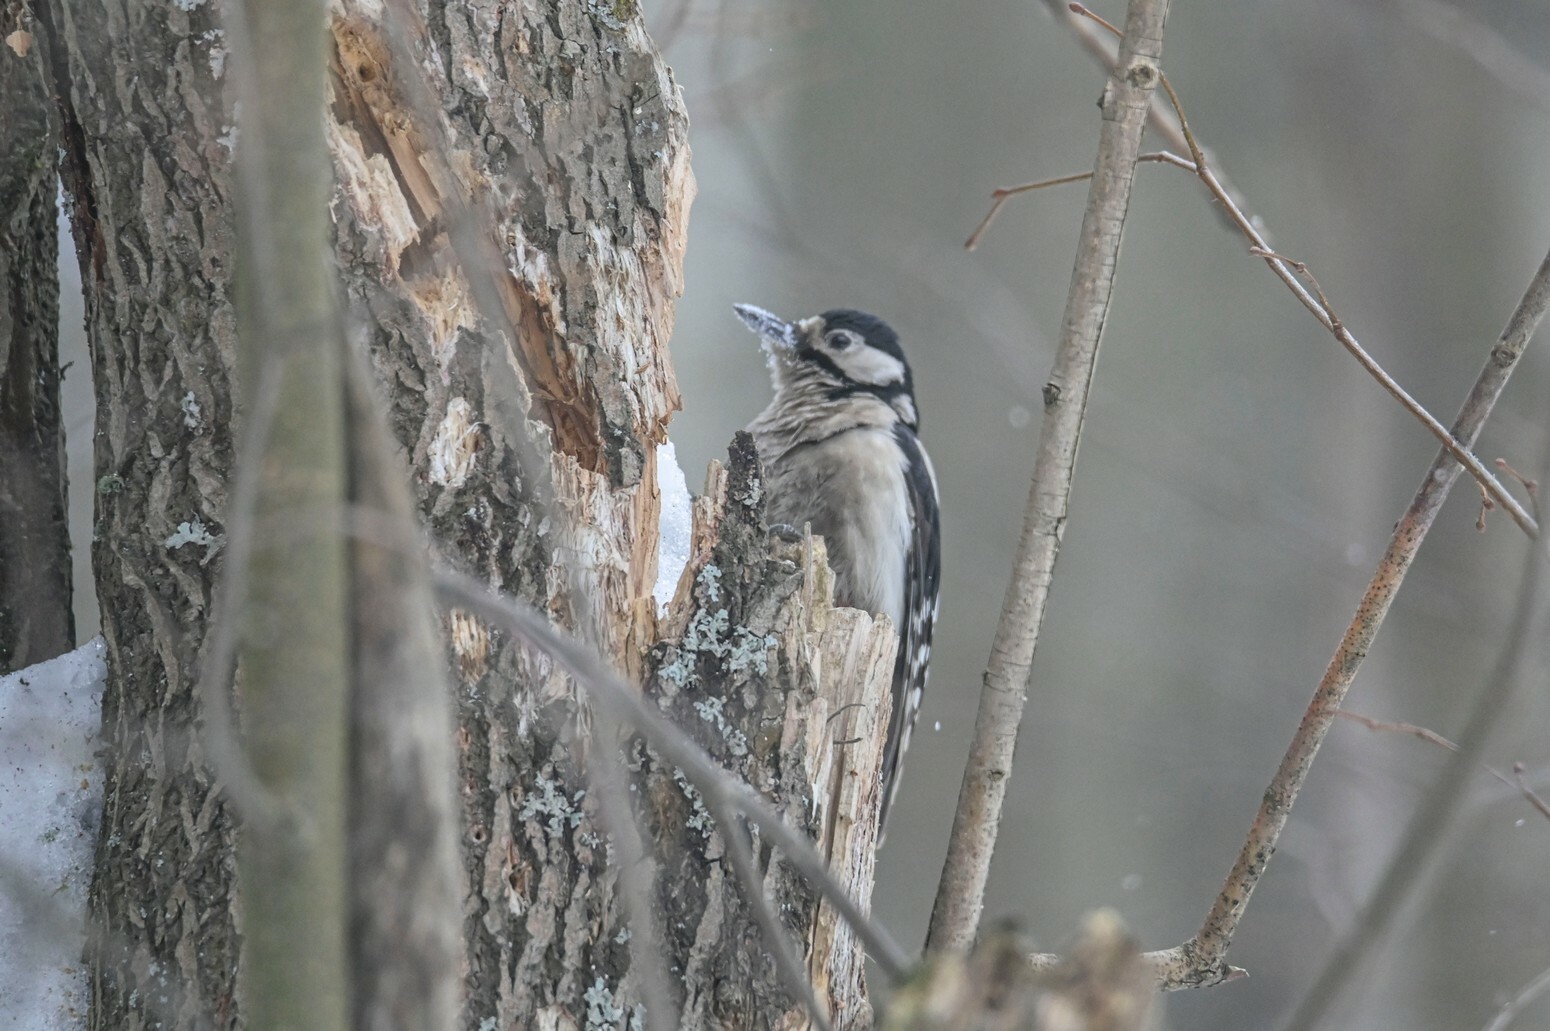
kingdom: Animalia
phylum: Chordata
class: Aves
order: Piciformes
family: Picidae
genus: Dendrocopos
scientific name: Dendrocopos major
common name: Great spotted woodpecker
